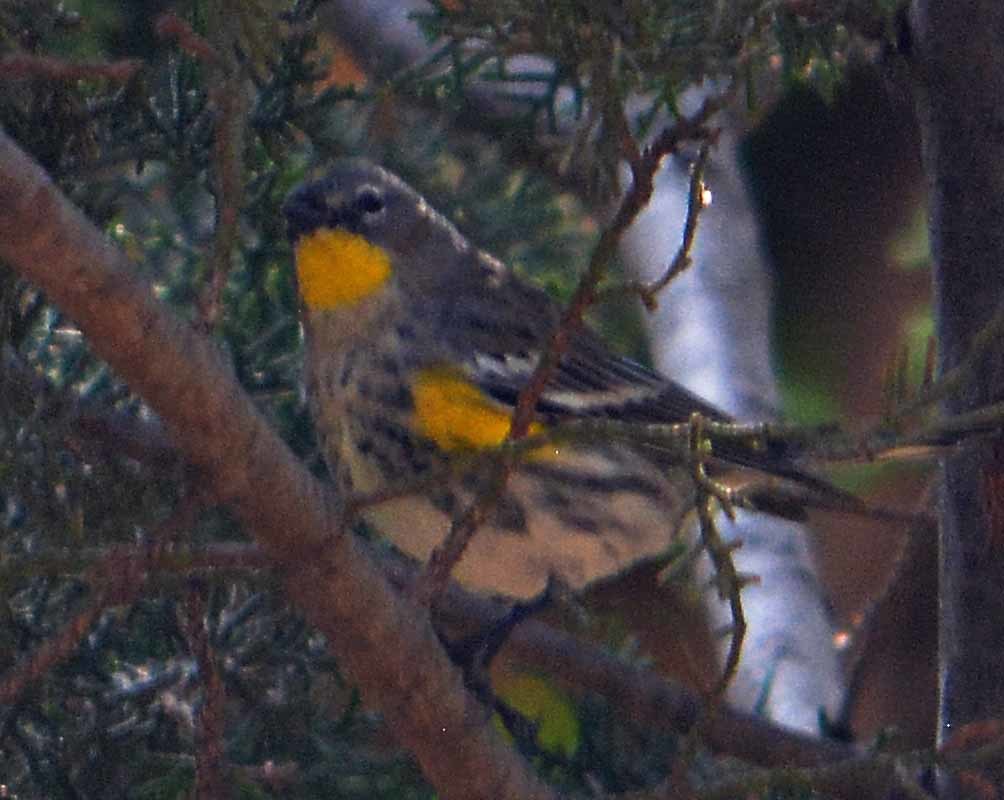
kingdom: Animalia
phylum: Chordata
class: Aves
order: Passeriformes
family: Parulidae
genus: Setophaga
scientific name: Setophaga coronata
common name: Myrtle warbler
